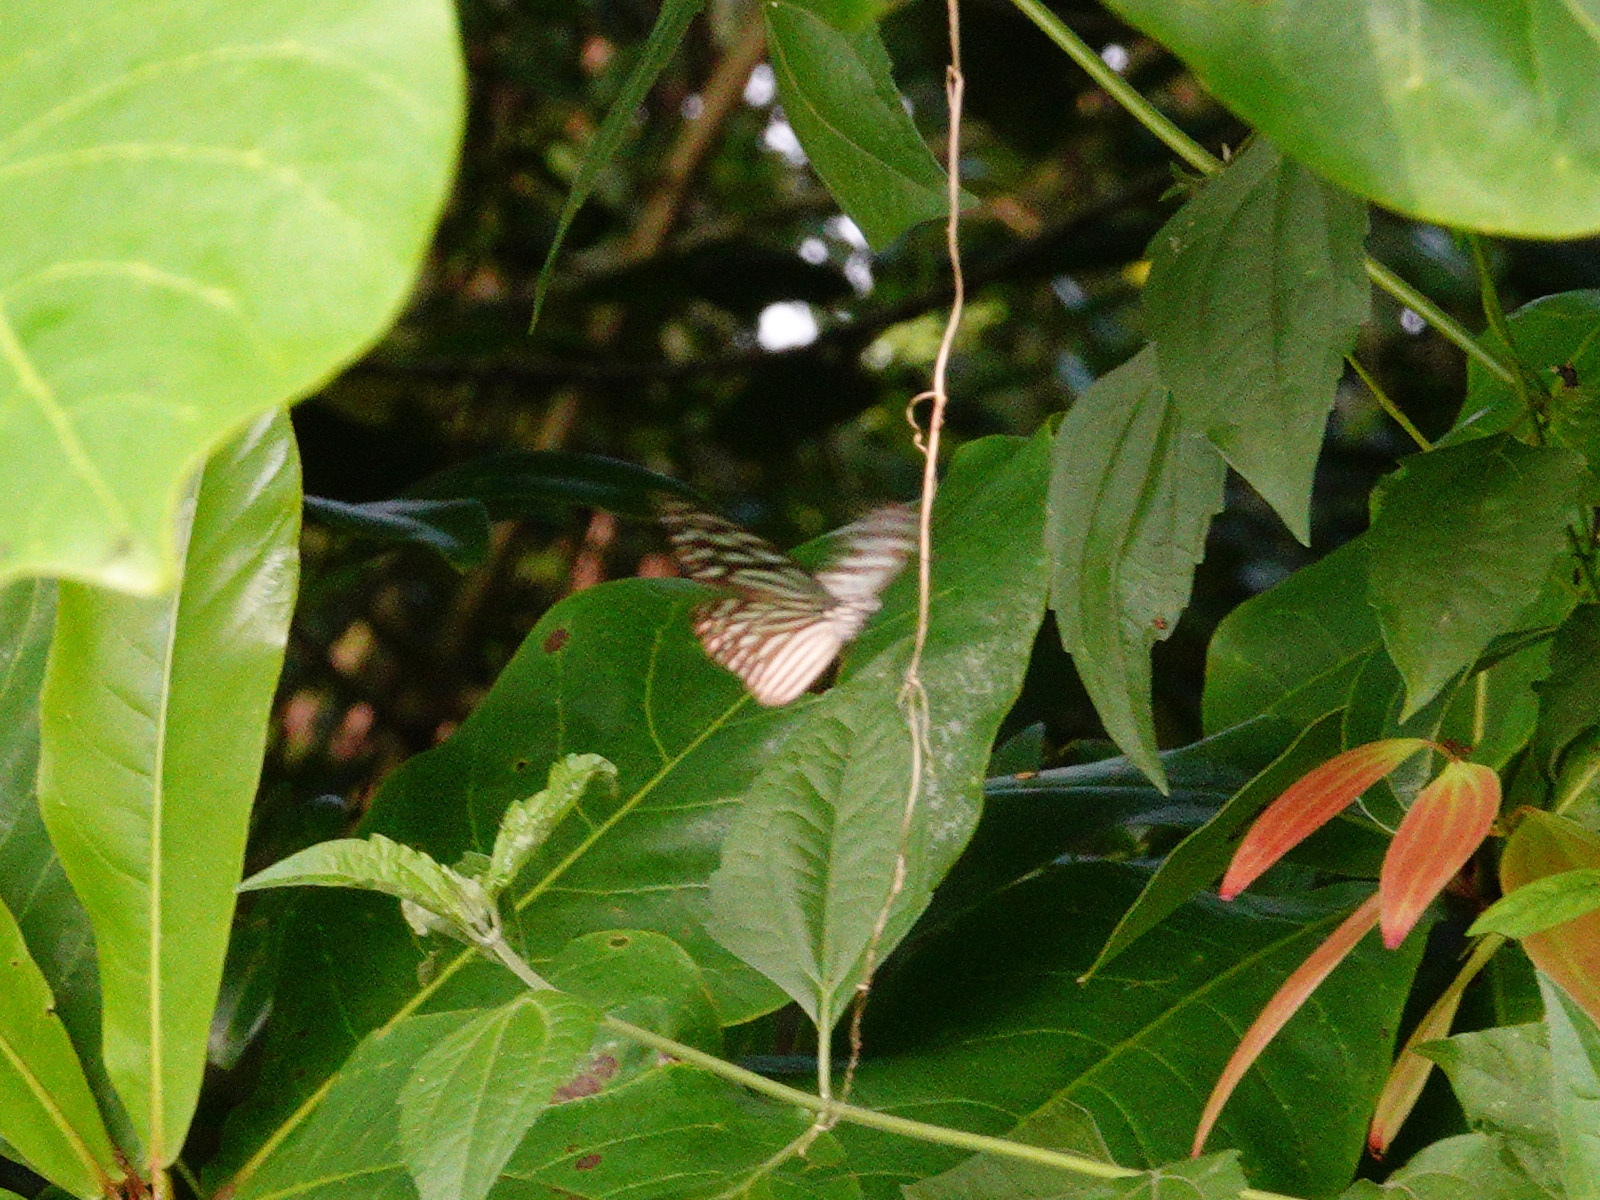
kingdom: Animalia
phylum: Arthropoda
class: Insecta
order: Lepidoptera
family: Nymphalidae
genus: Parantica
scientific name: Parantica agleoides
